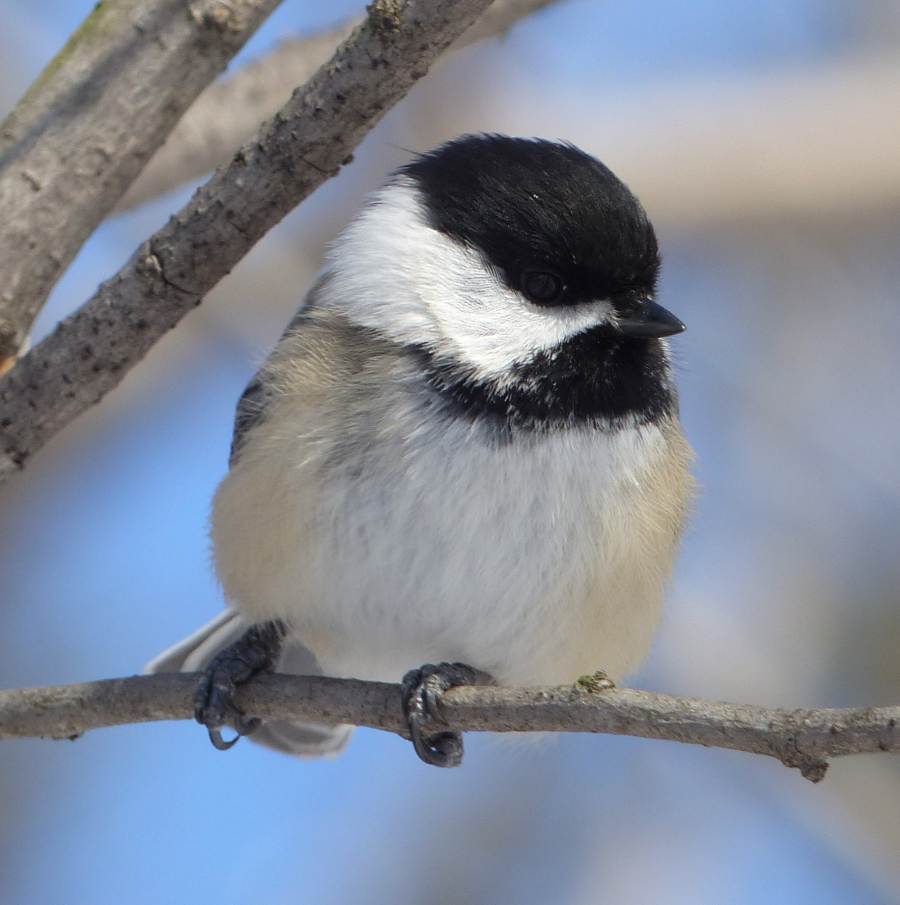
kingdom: Animalia
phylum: Chordata
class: Aves
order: Passeriformes
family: Paridae
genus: Poecile
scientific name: Poecile atricapillus
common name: Black-capped chickadee
